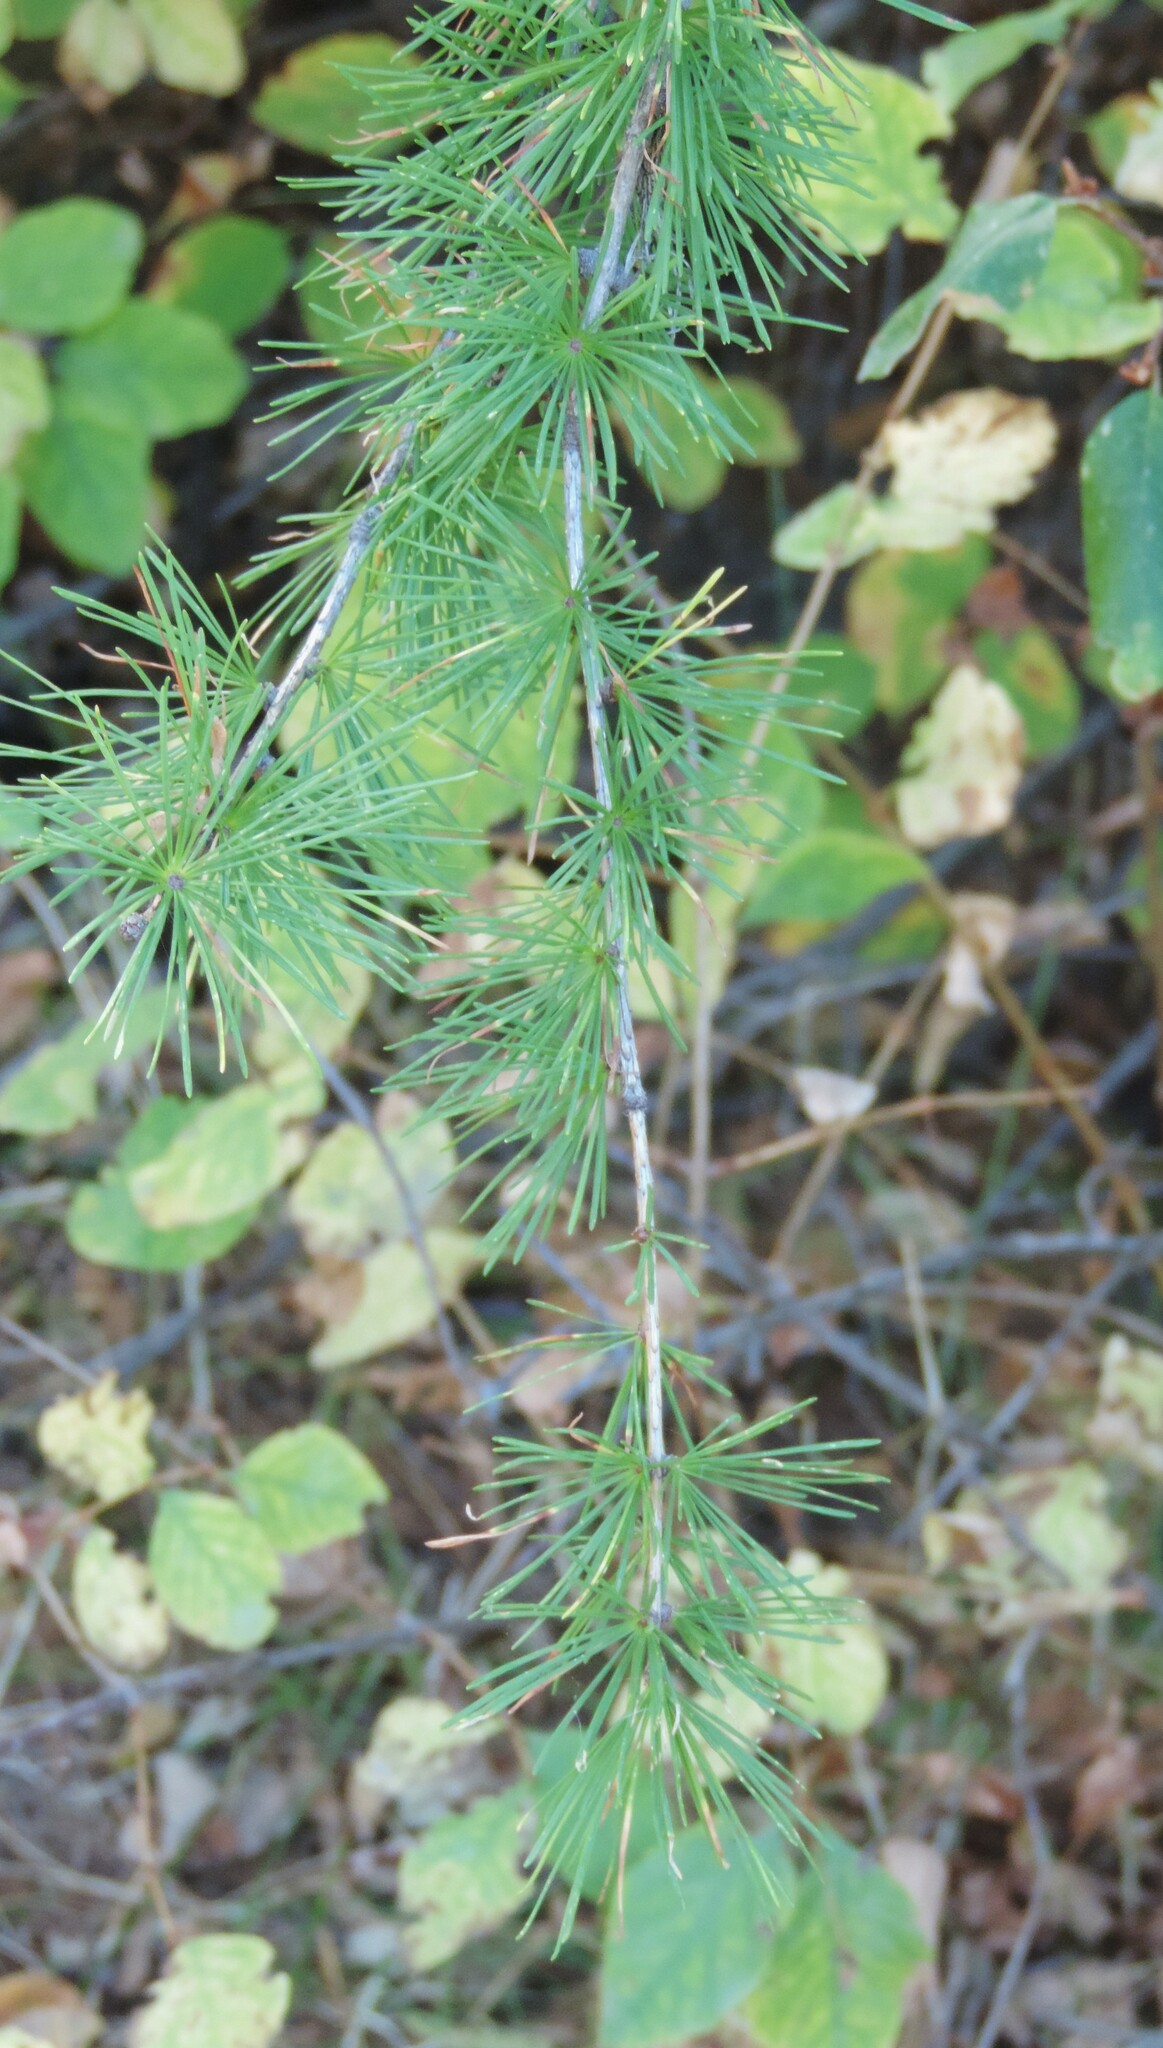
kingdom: Plantae
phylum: Tracheophyta
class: Pinopsida
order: Pinales
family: Pinaceae
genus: Larix
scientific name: Larix occidentalis
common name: Western larch
